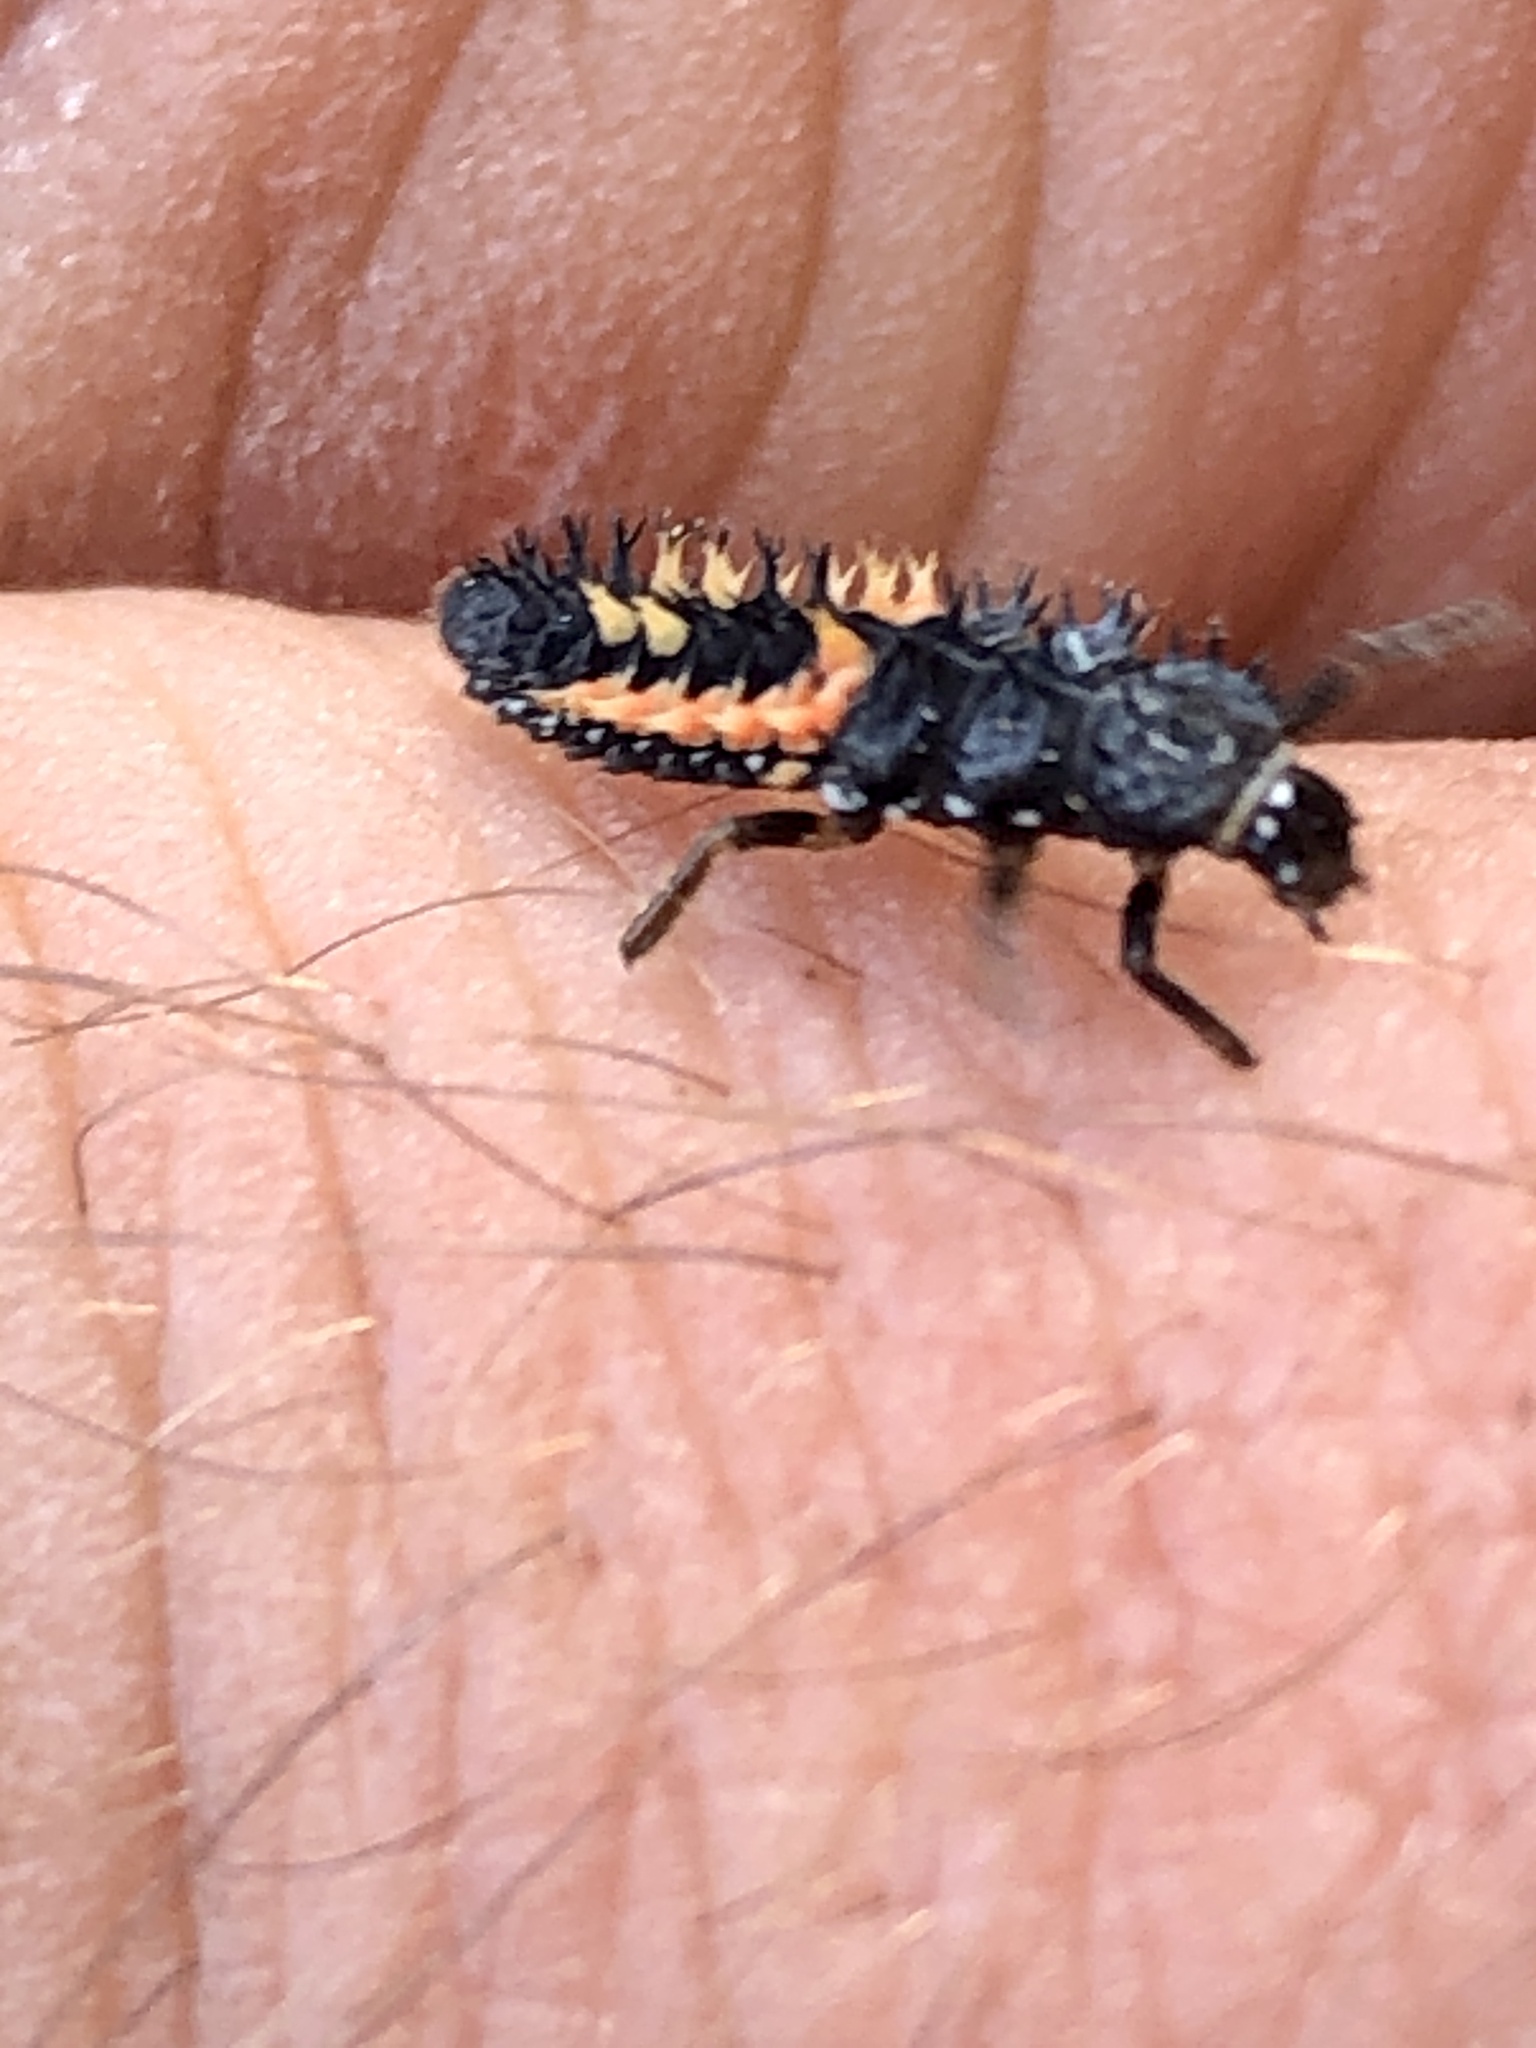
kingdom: Animalia
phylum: Arthropoda
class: Insecta
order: Coleoptera
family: Coccinellidae
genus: Harmonia
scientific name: Harmonia axyridis
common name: Harlequin ladybird
